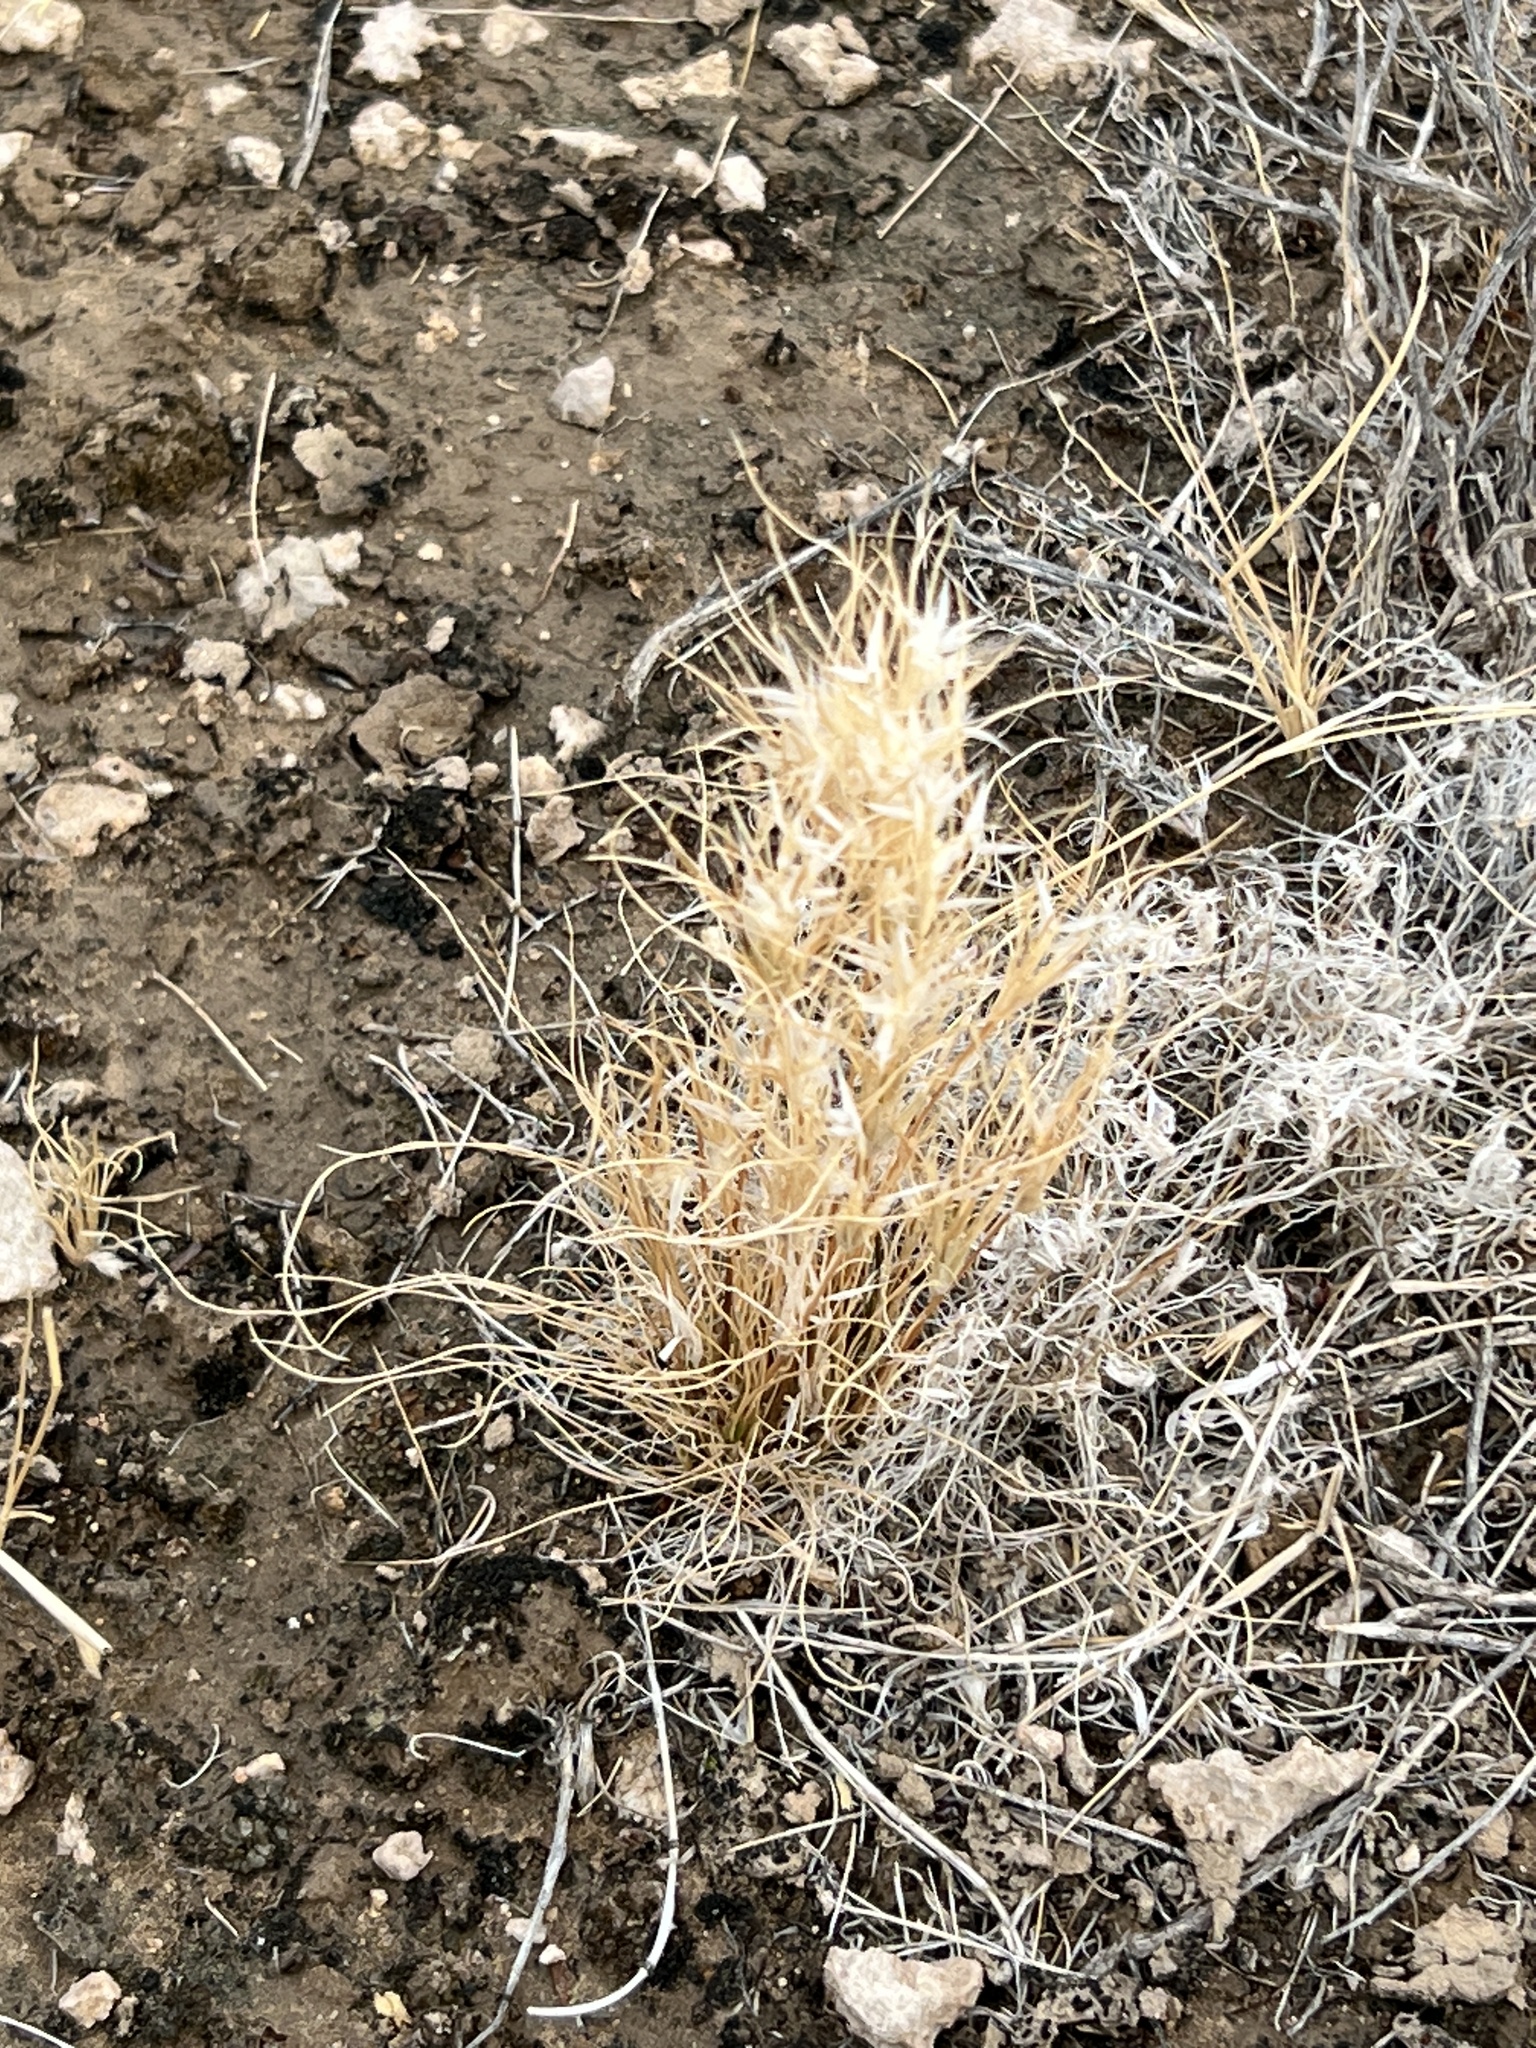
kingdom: Plantae
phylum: Tracheophyta
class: Liliopsida
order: Poales
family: Poaceae
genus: Dasyochloa
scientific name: Dasyochloa pulchella
